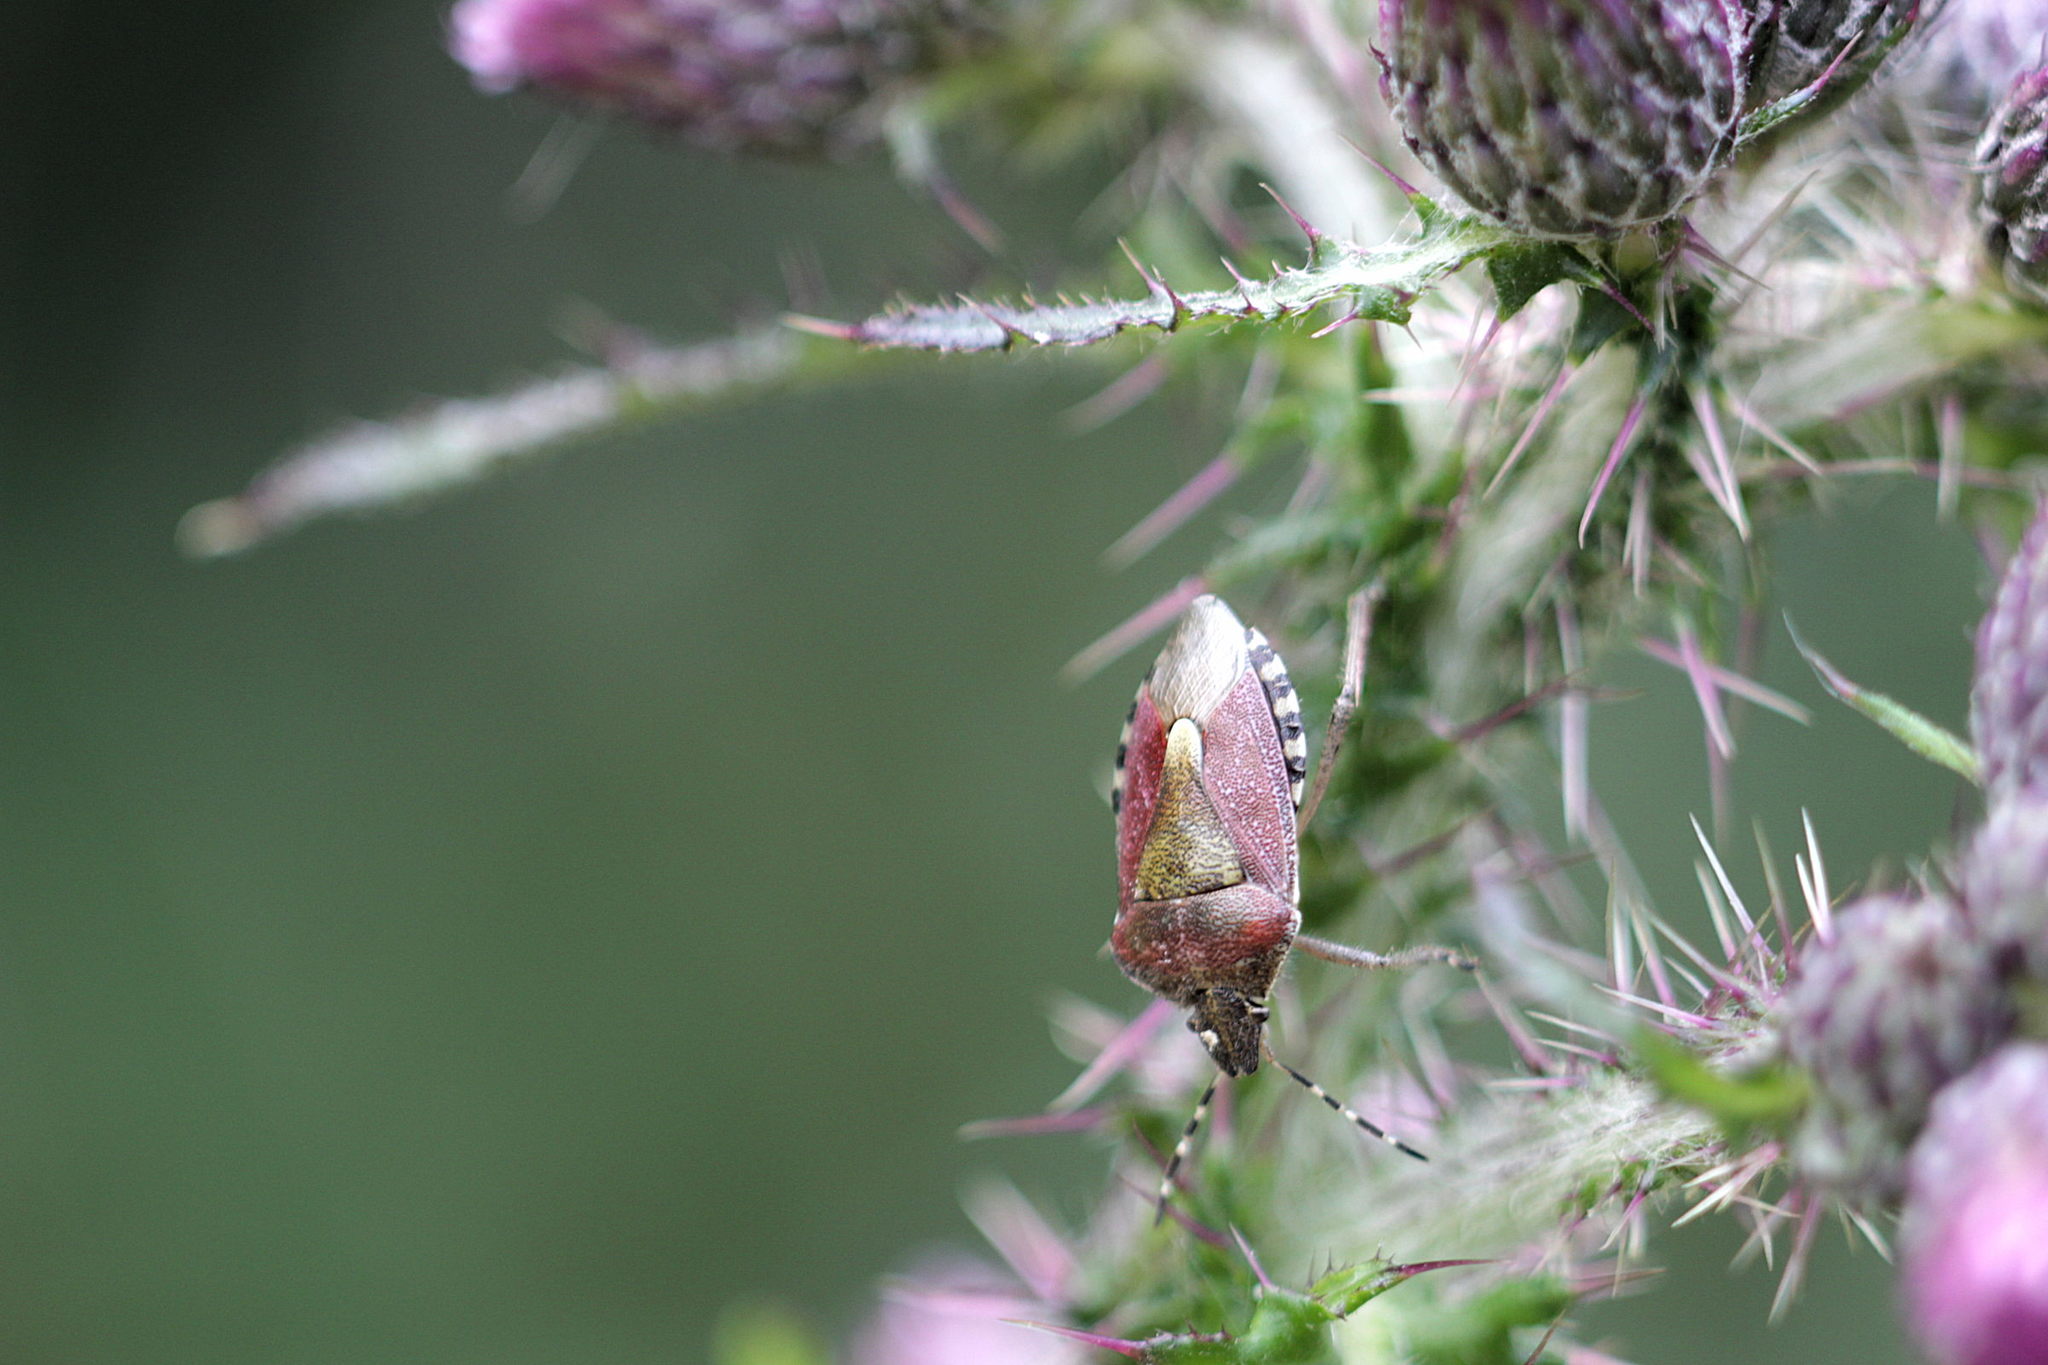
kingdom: Animalia
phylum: Arthropoda
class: Insecta
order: Hemiptera
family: Pentatomidae
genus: Dolycoris
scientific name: Dolycoris baccarum
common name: Sloe bug
